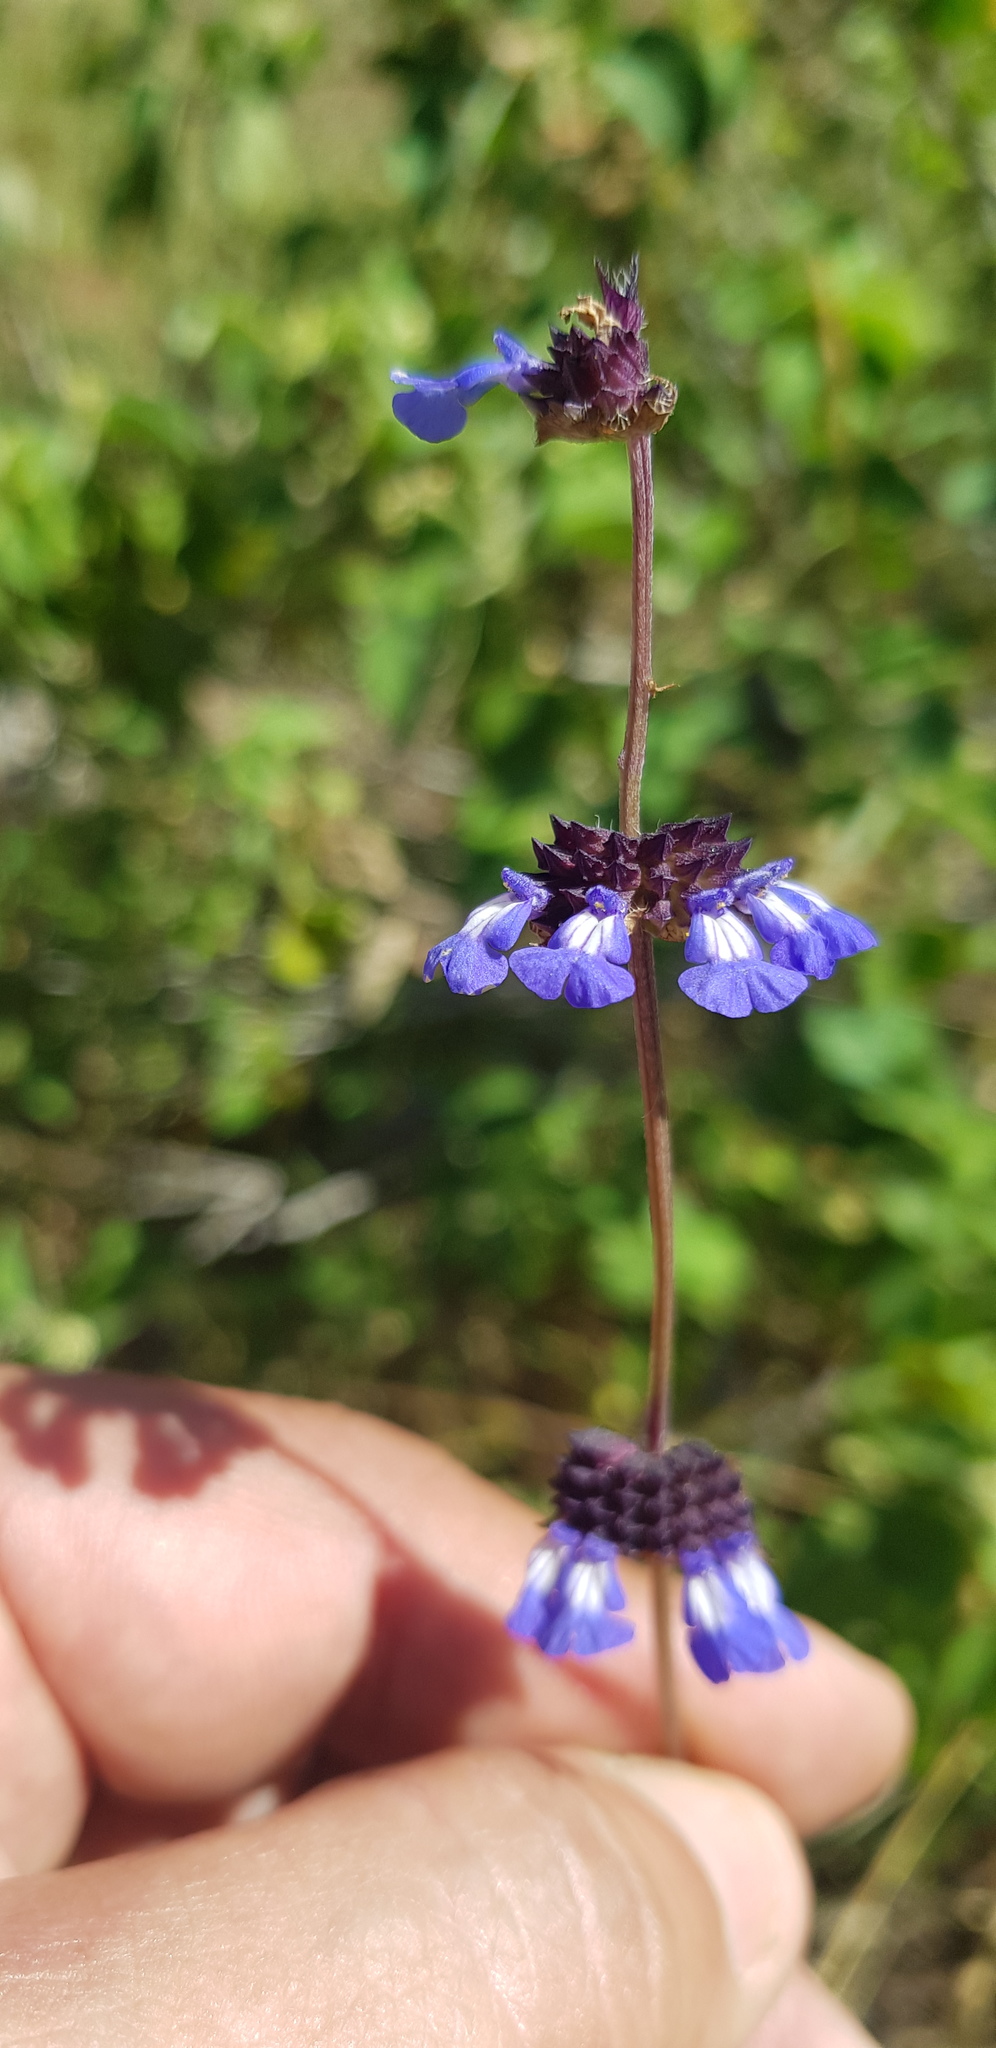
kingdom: Plantae
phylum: Tracheophyta
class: Magnoliopsida
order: Lamiales
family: Lamiaceae
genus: Salvia
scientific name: Salvia lasiocephala
